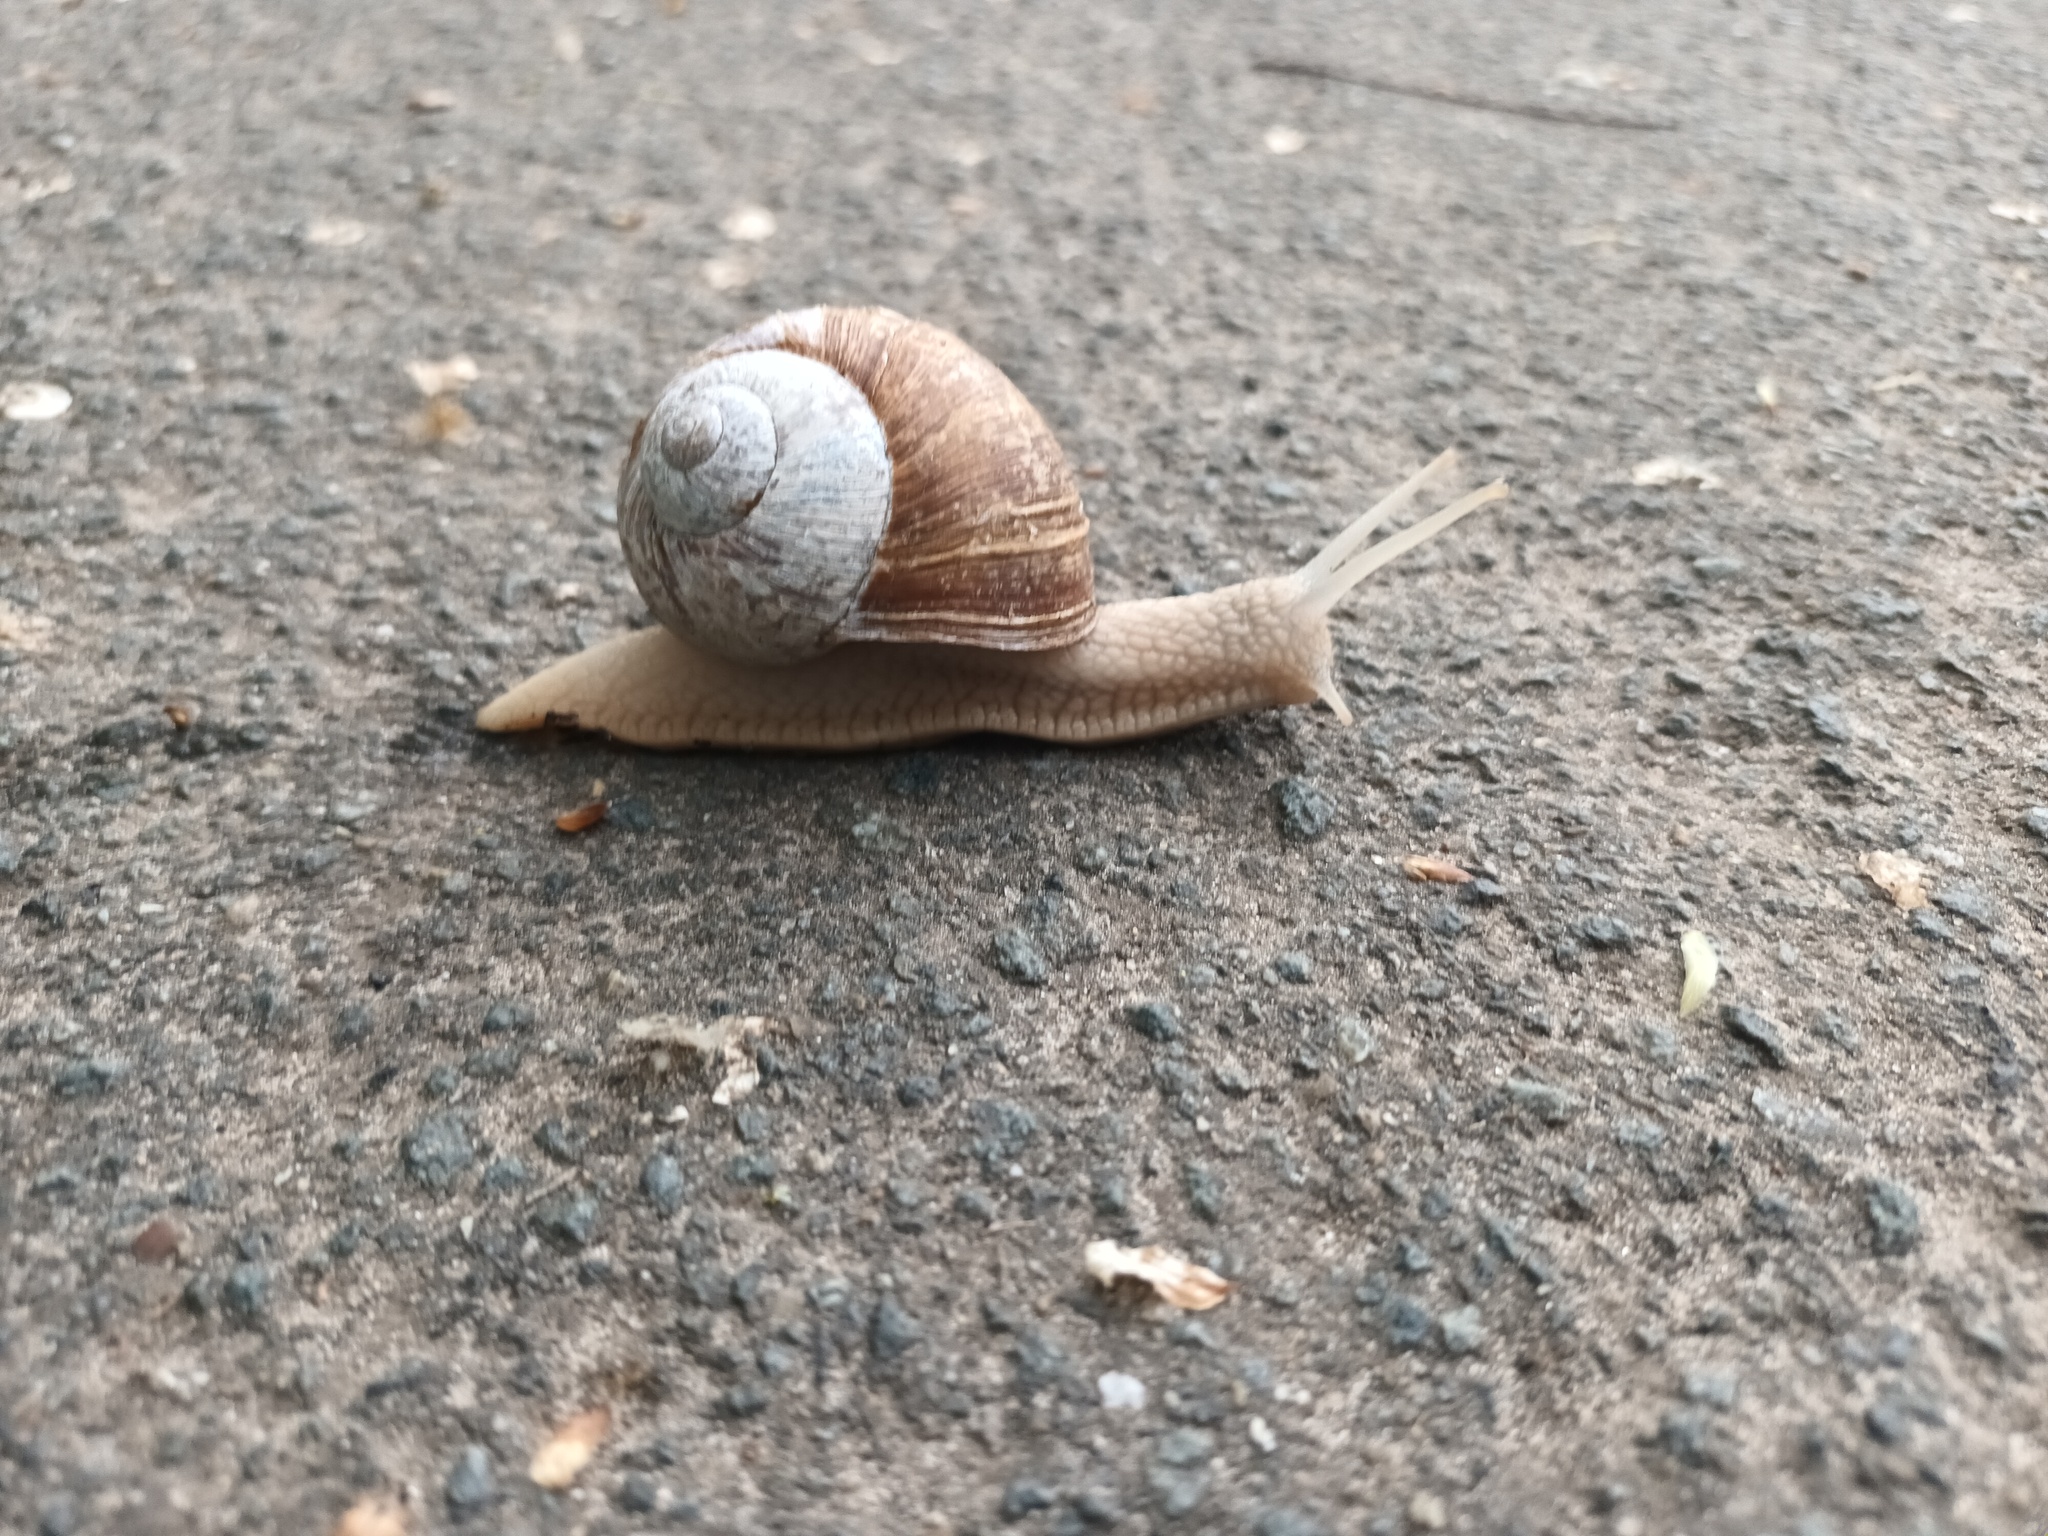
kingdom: Animalia
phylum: Mollusca
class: Gastropoda
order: Stylommatophora
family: Helicidae
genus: Helix
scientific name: Helix pomatia
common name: Roman snail
